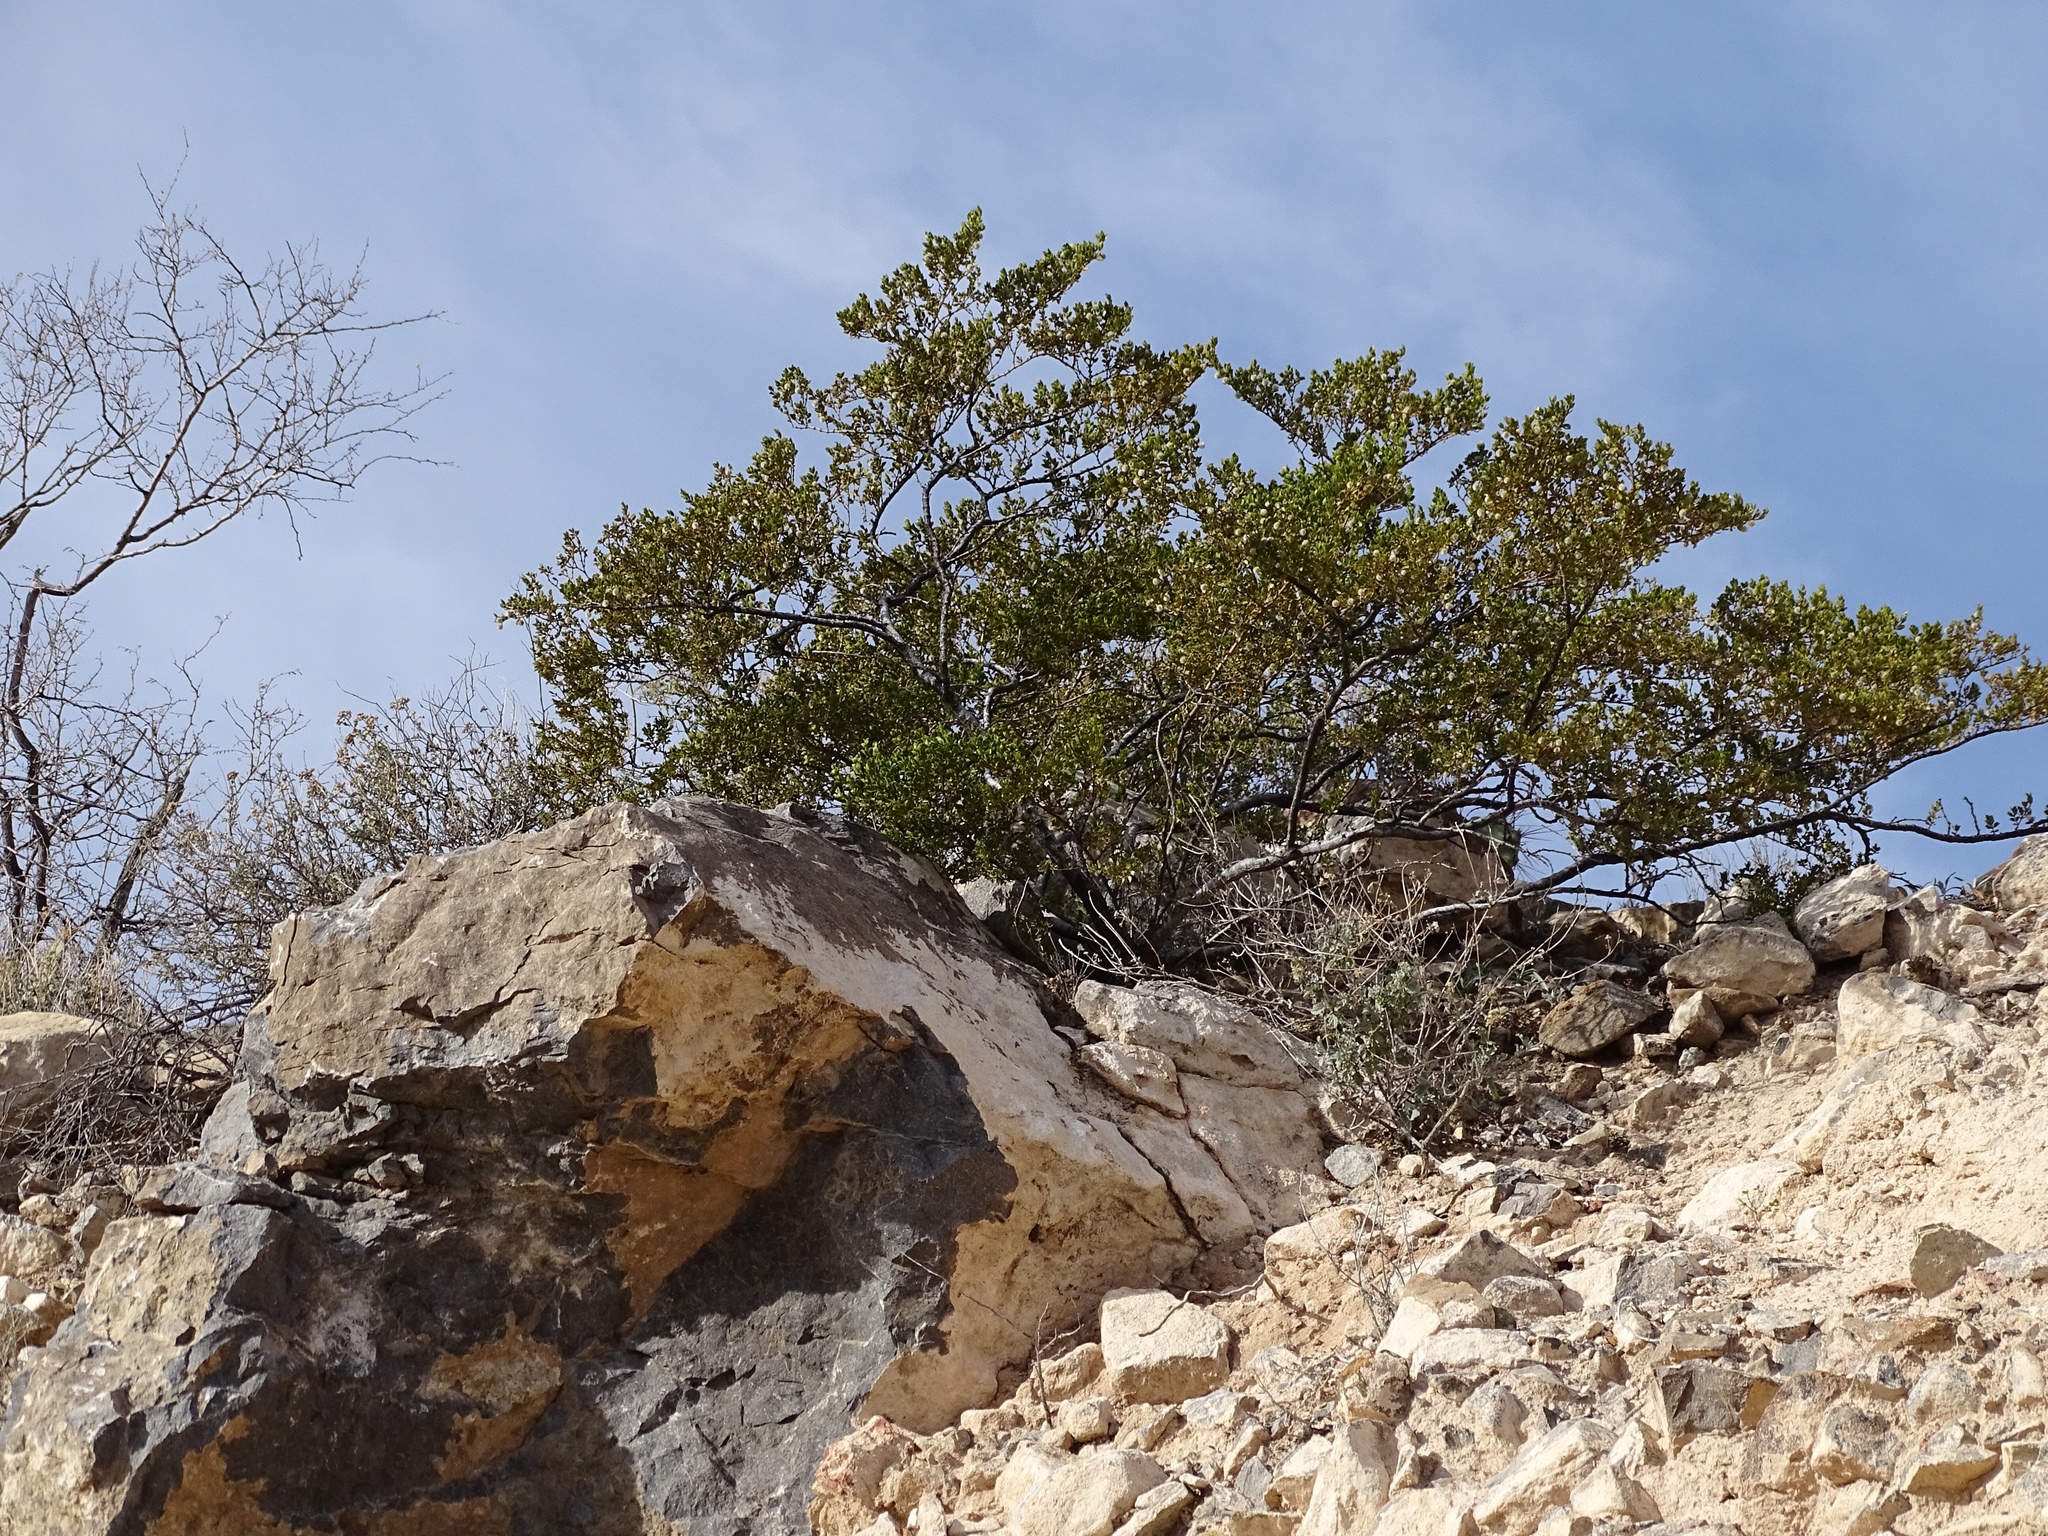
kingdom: Plantae
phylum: Tracheophyta
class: Magnoliopsida
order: Zygophyllales
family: Zygophyllaceae
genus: Larrea
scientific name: Larrea tridentata
